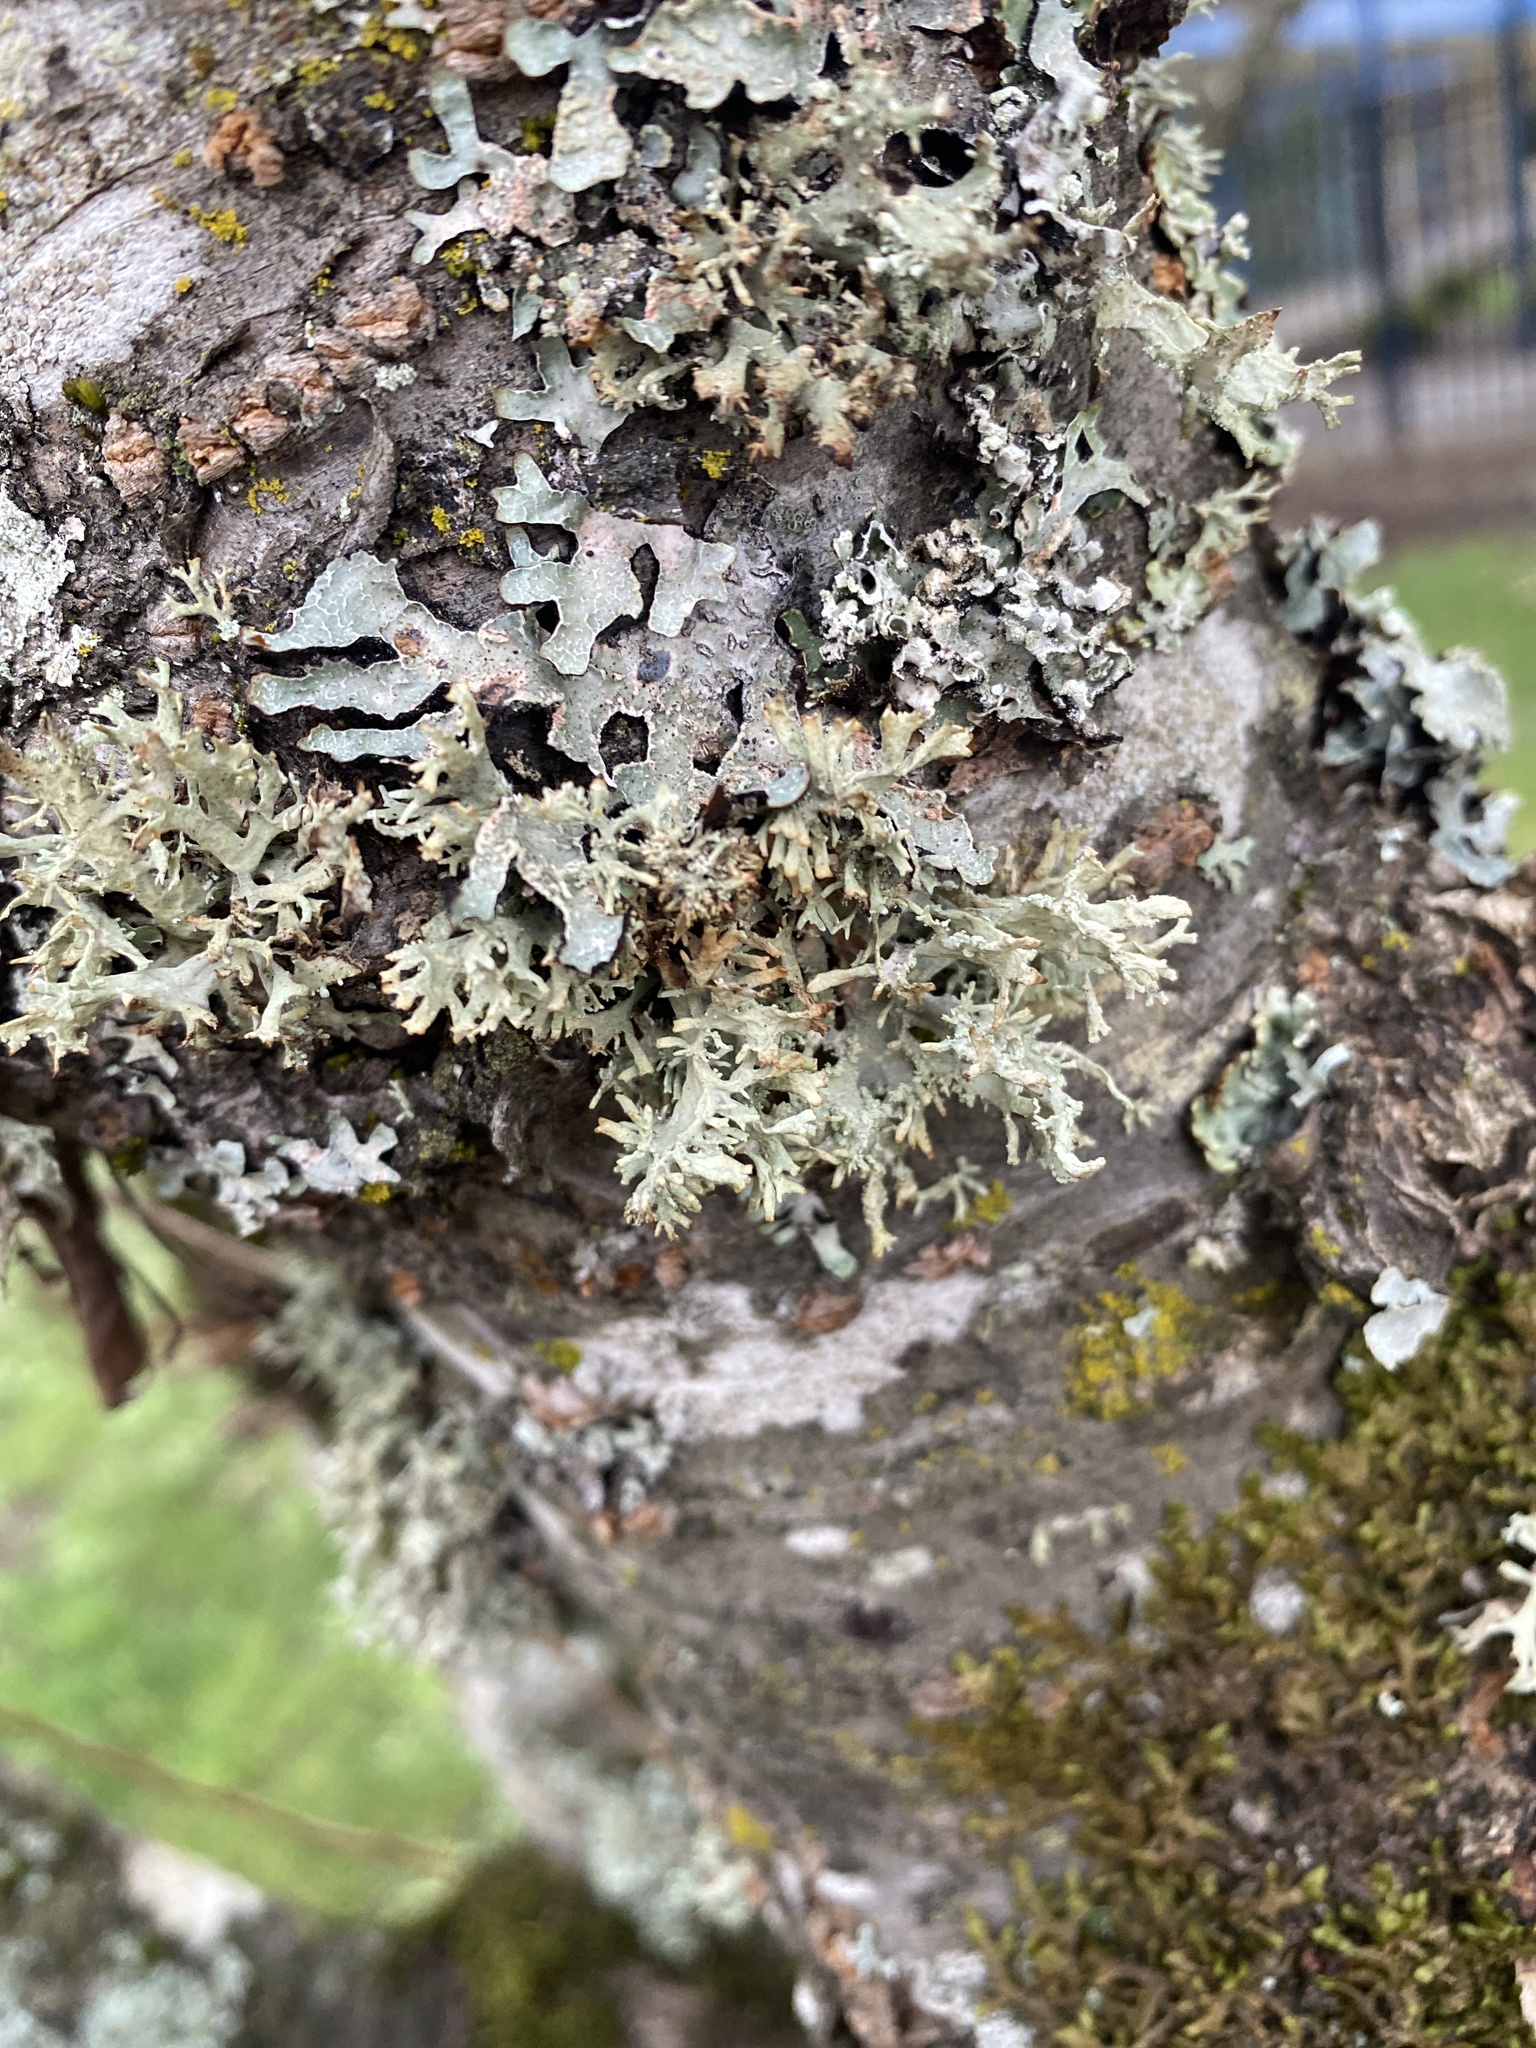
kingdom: Fungi
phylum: Ascomycota
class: Lecanoromycetes
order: Lecanorales
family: Parmeliaceae
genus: Evernia
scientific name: Evernia prunastri
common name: Oak moss
